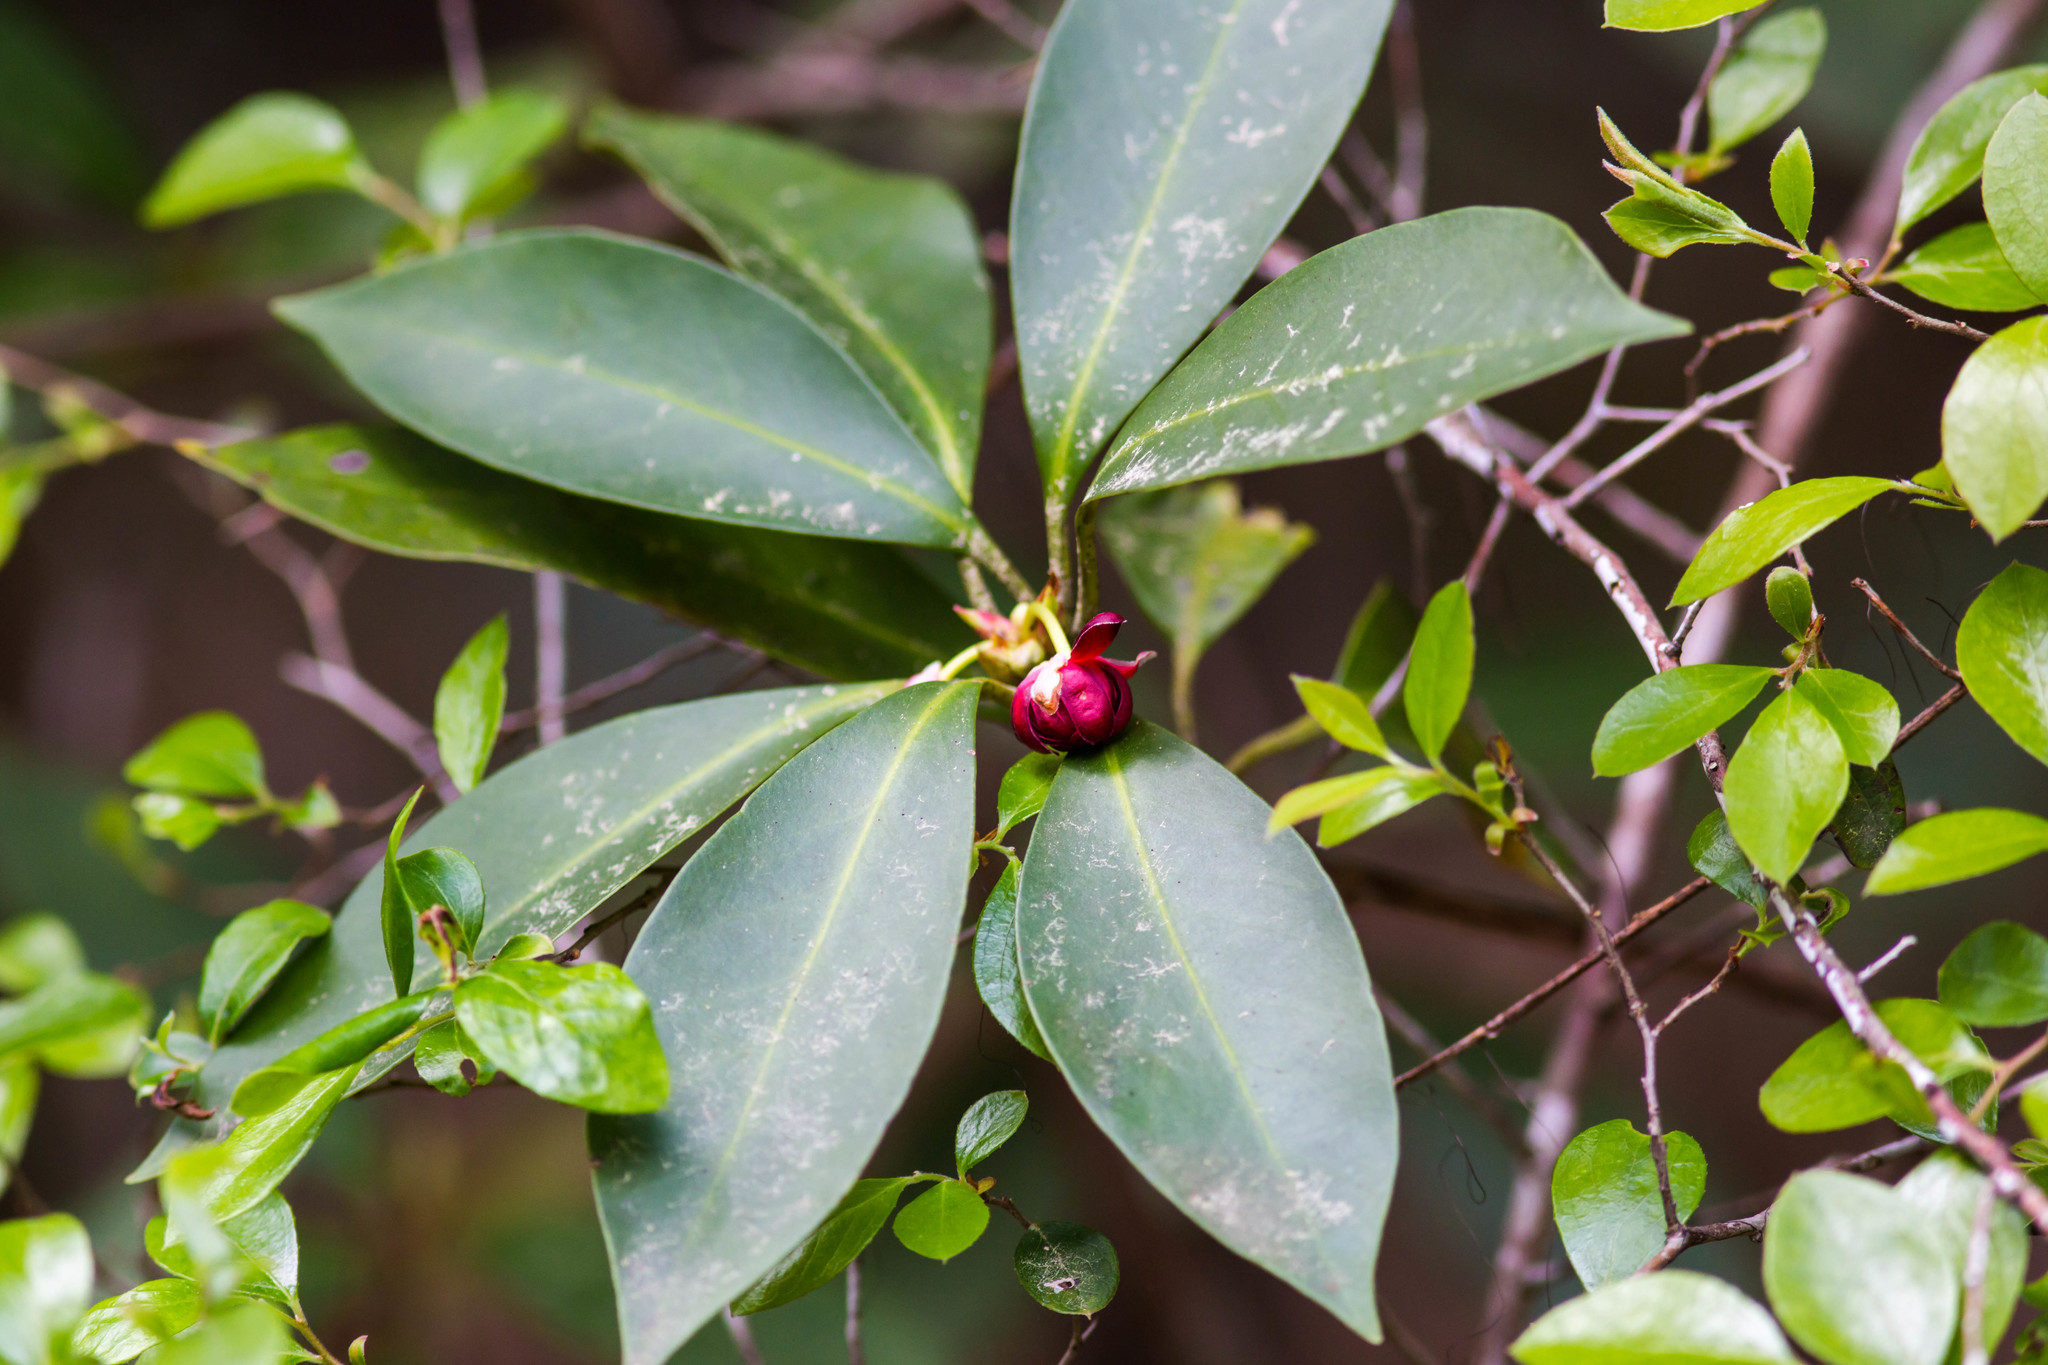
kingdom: Plantae
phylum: Tracheophyta
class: Magnoliopsida
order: Austrobaileyales
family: Schisandraceae
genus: Illicium
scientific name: Illicium floridanum
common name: Florida anisetree
